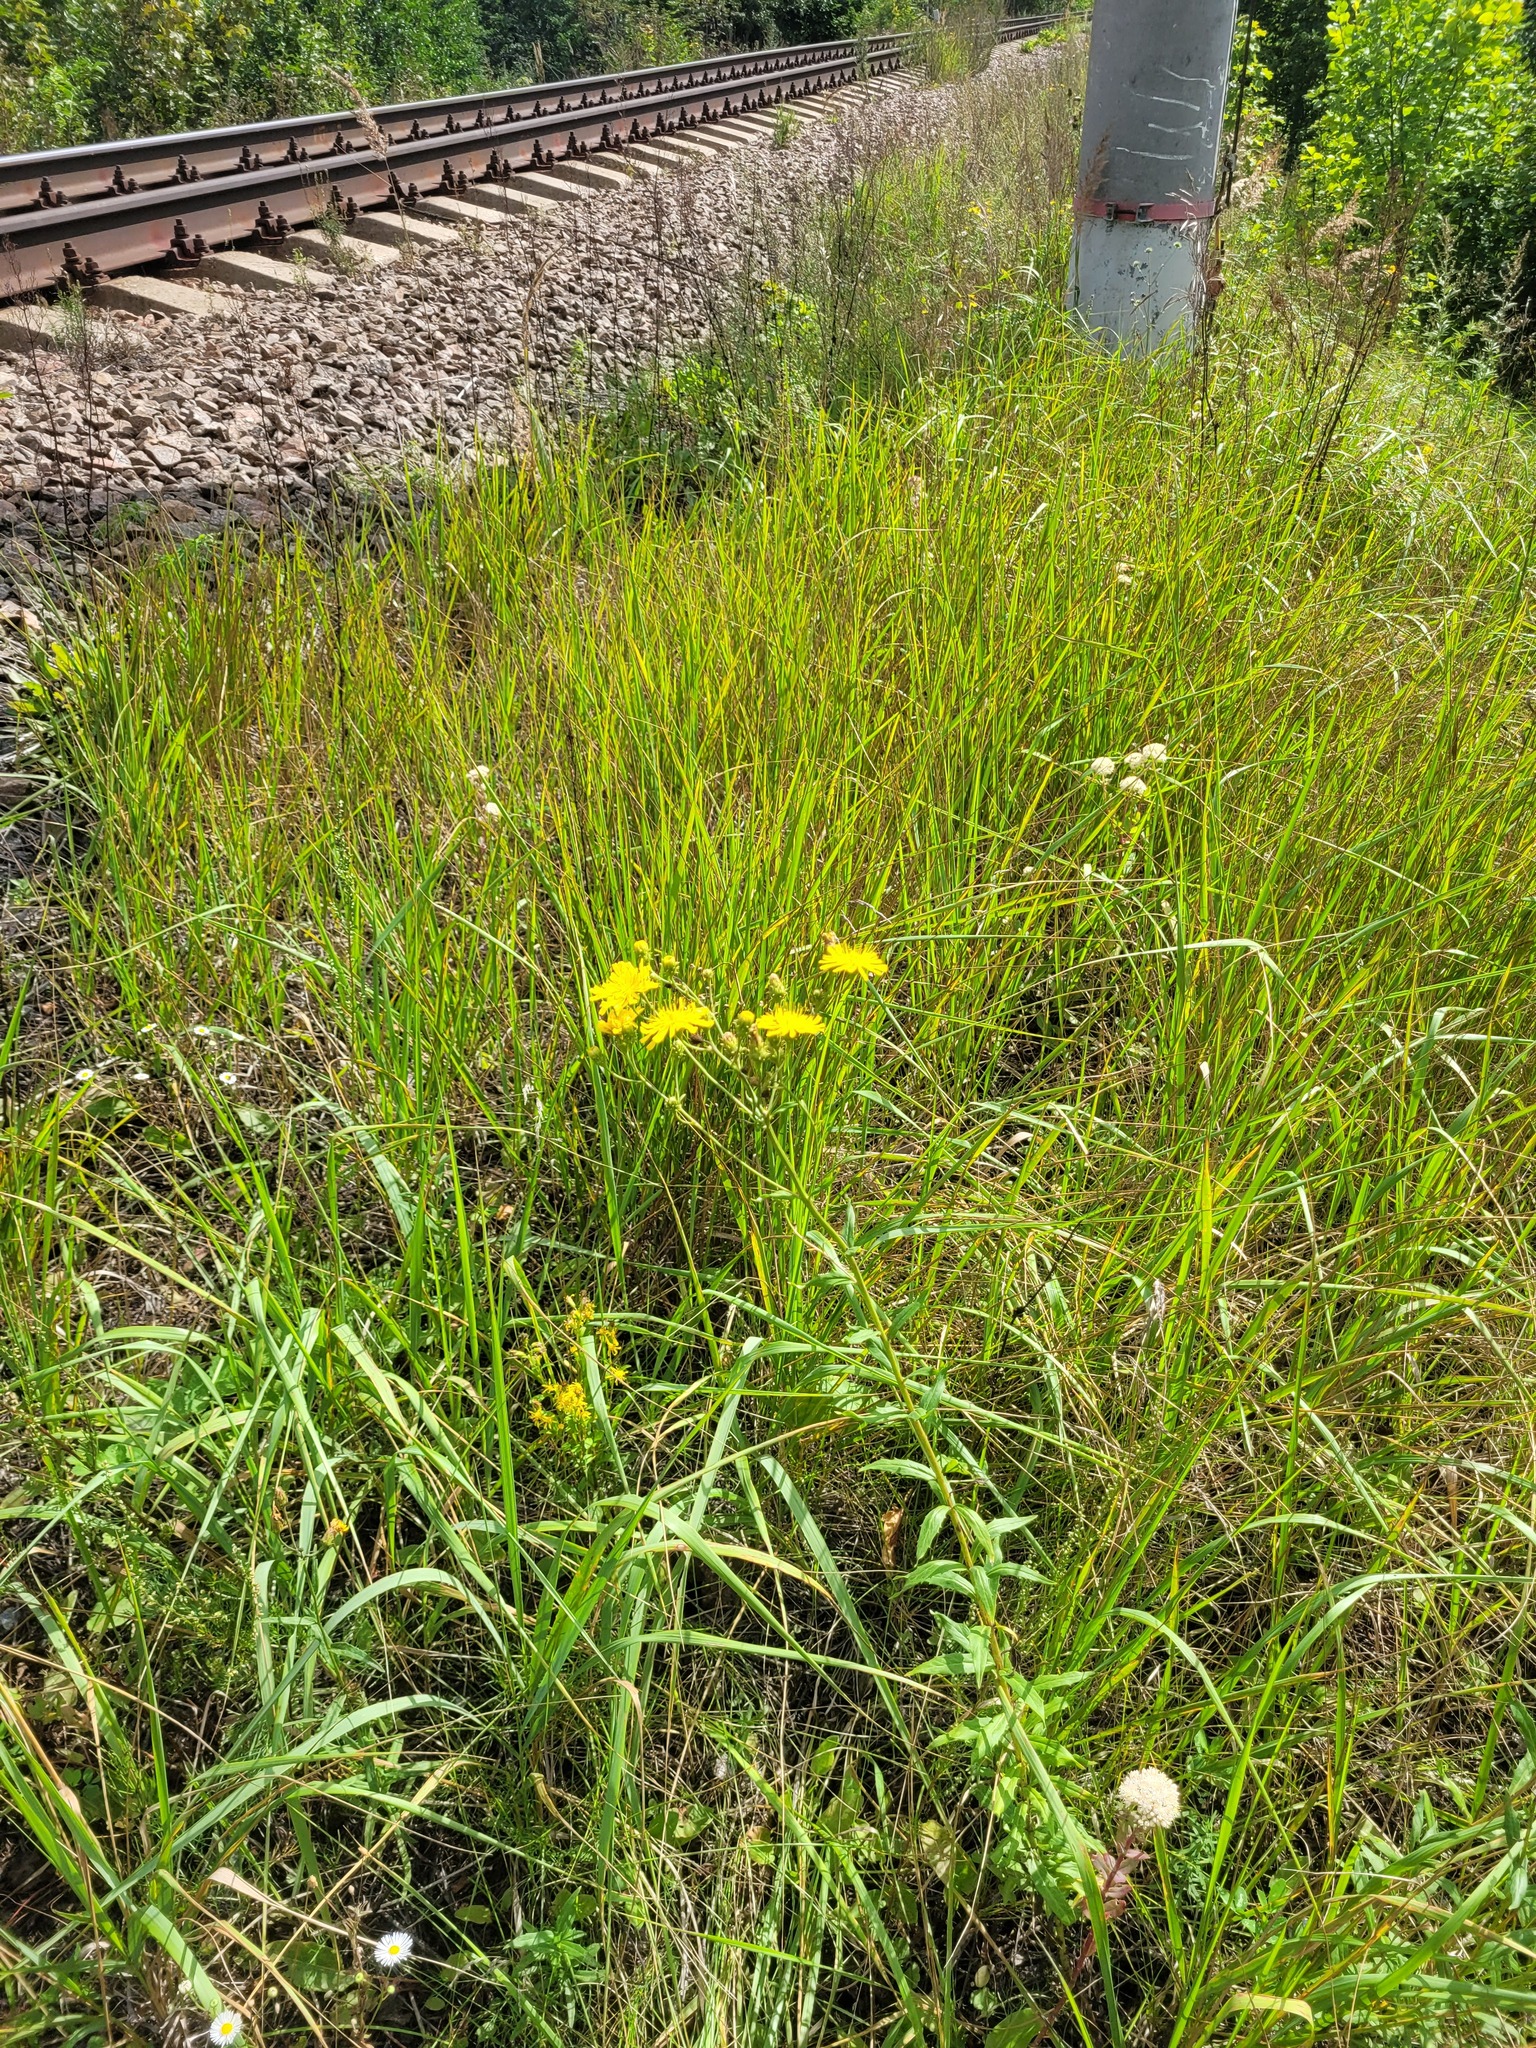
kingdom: Plantae
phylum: Tracheophyta
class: Magnoliopsida
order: Asterales
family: Asteraceae
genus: Hieracium
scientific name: Hieracium umbellatum
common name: Northern hawkweed
